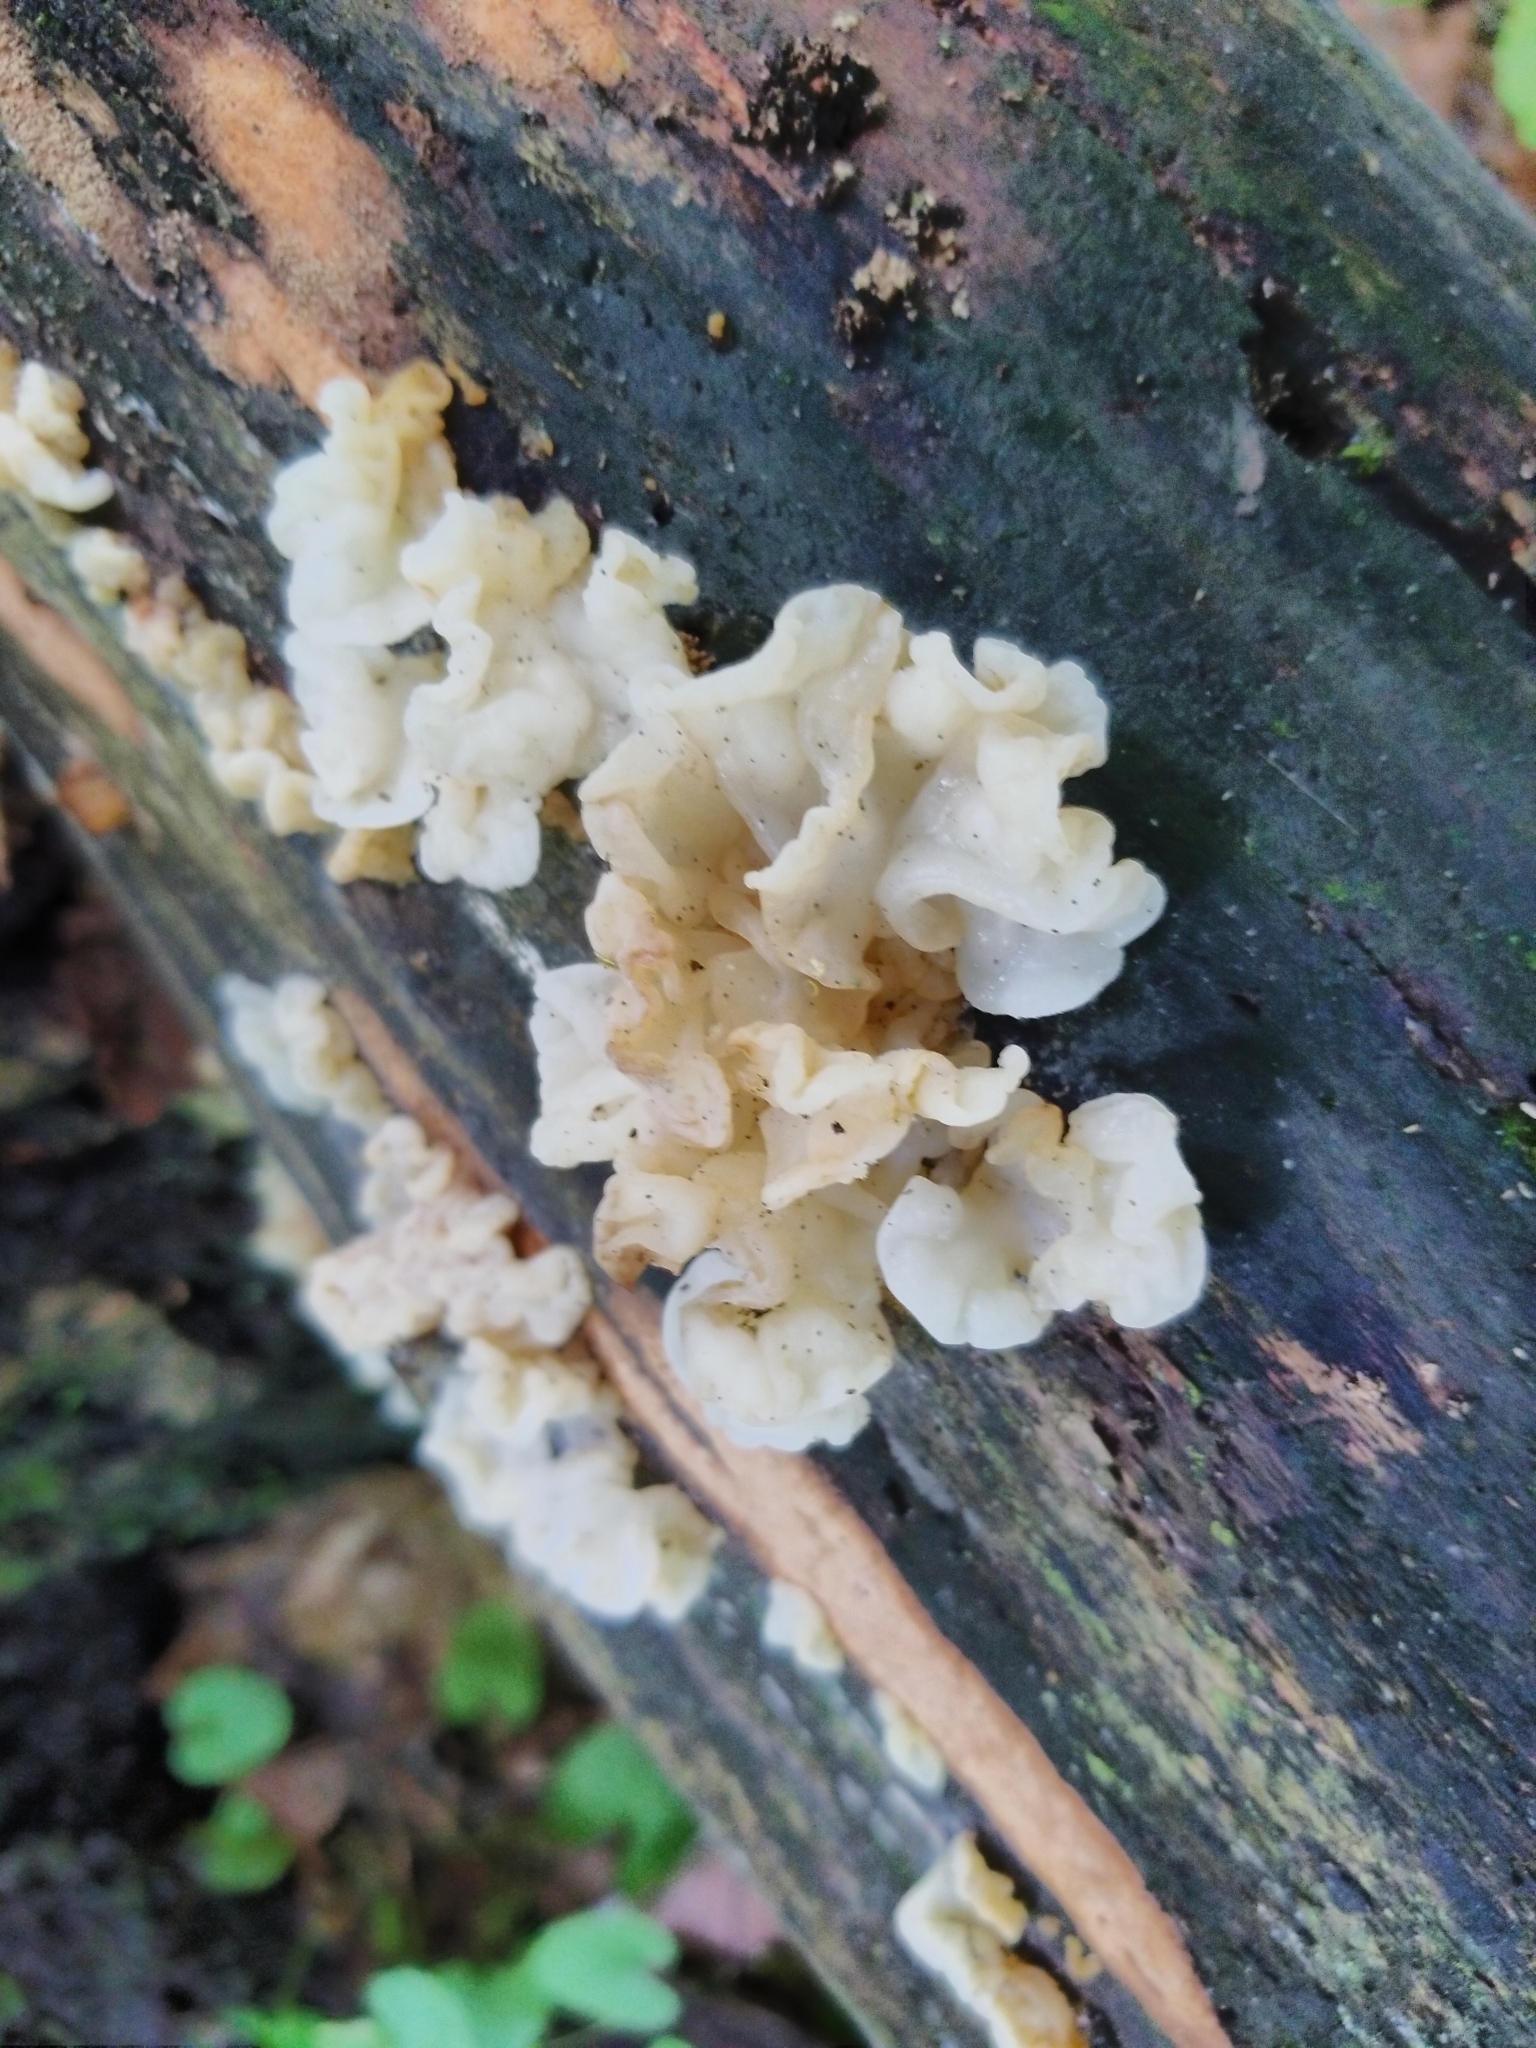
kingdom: Fungi
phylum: Basidiomycota
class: Agaricomycetes
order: Auriculariales
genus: Ductifera
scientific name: Ductifera pululahuana
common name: White jelly fungus
